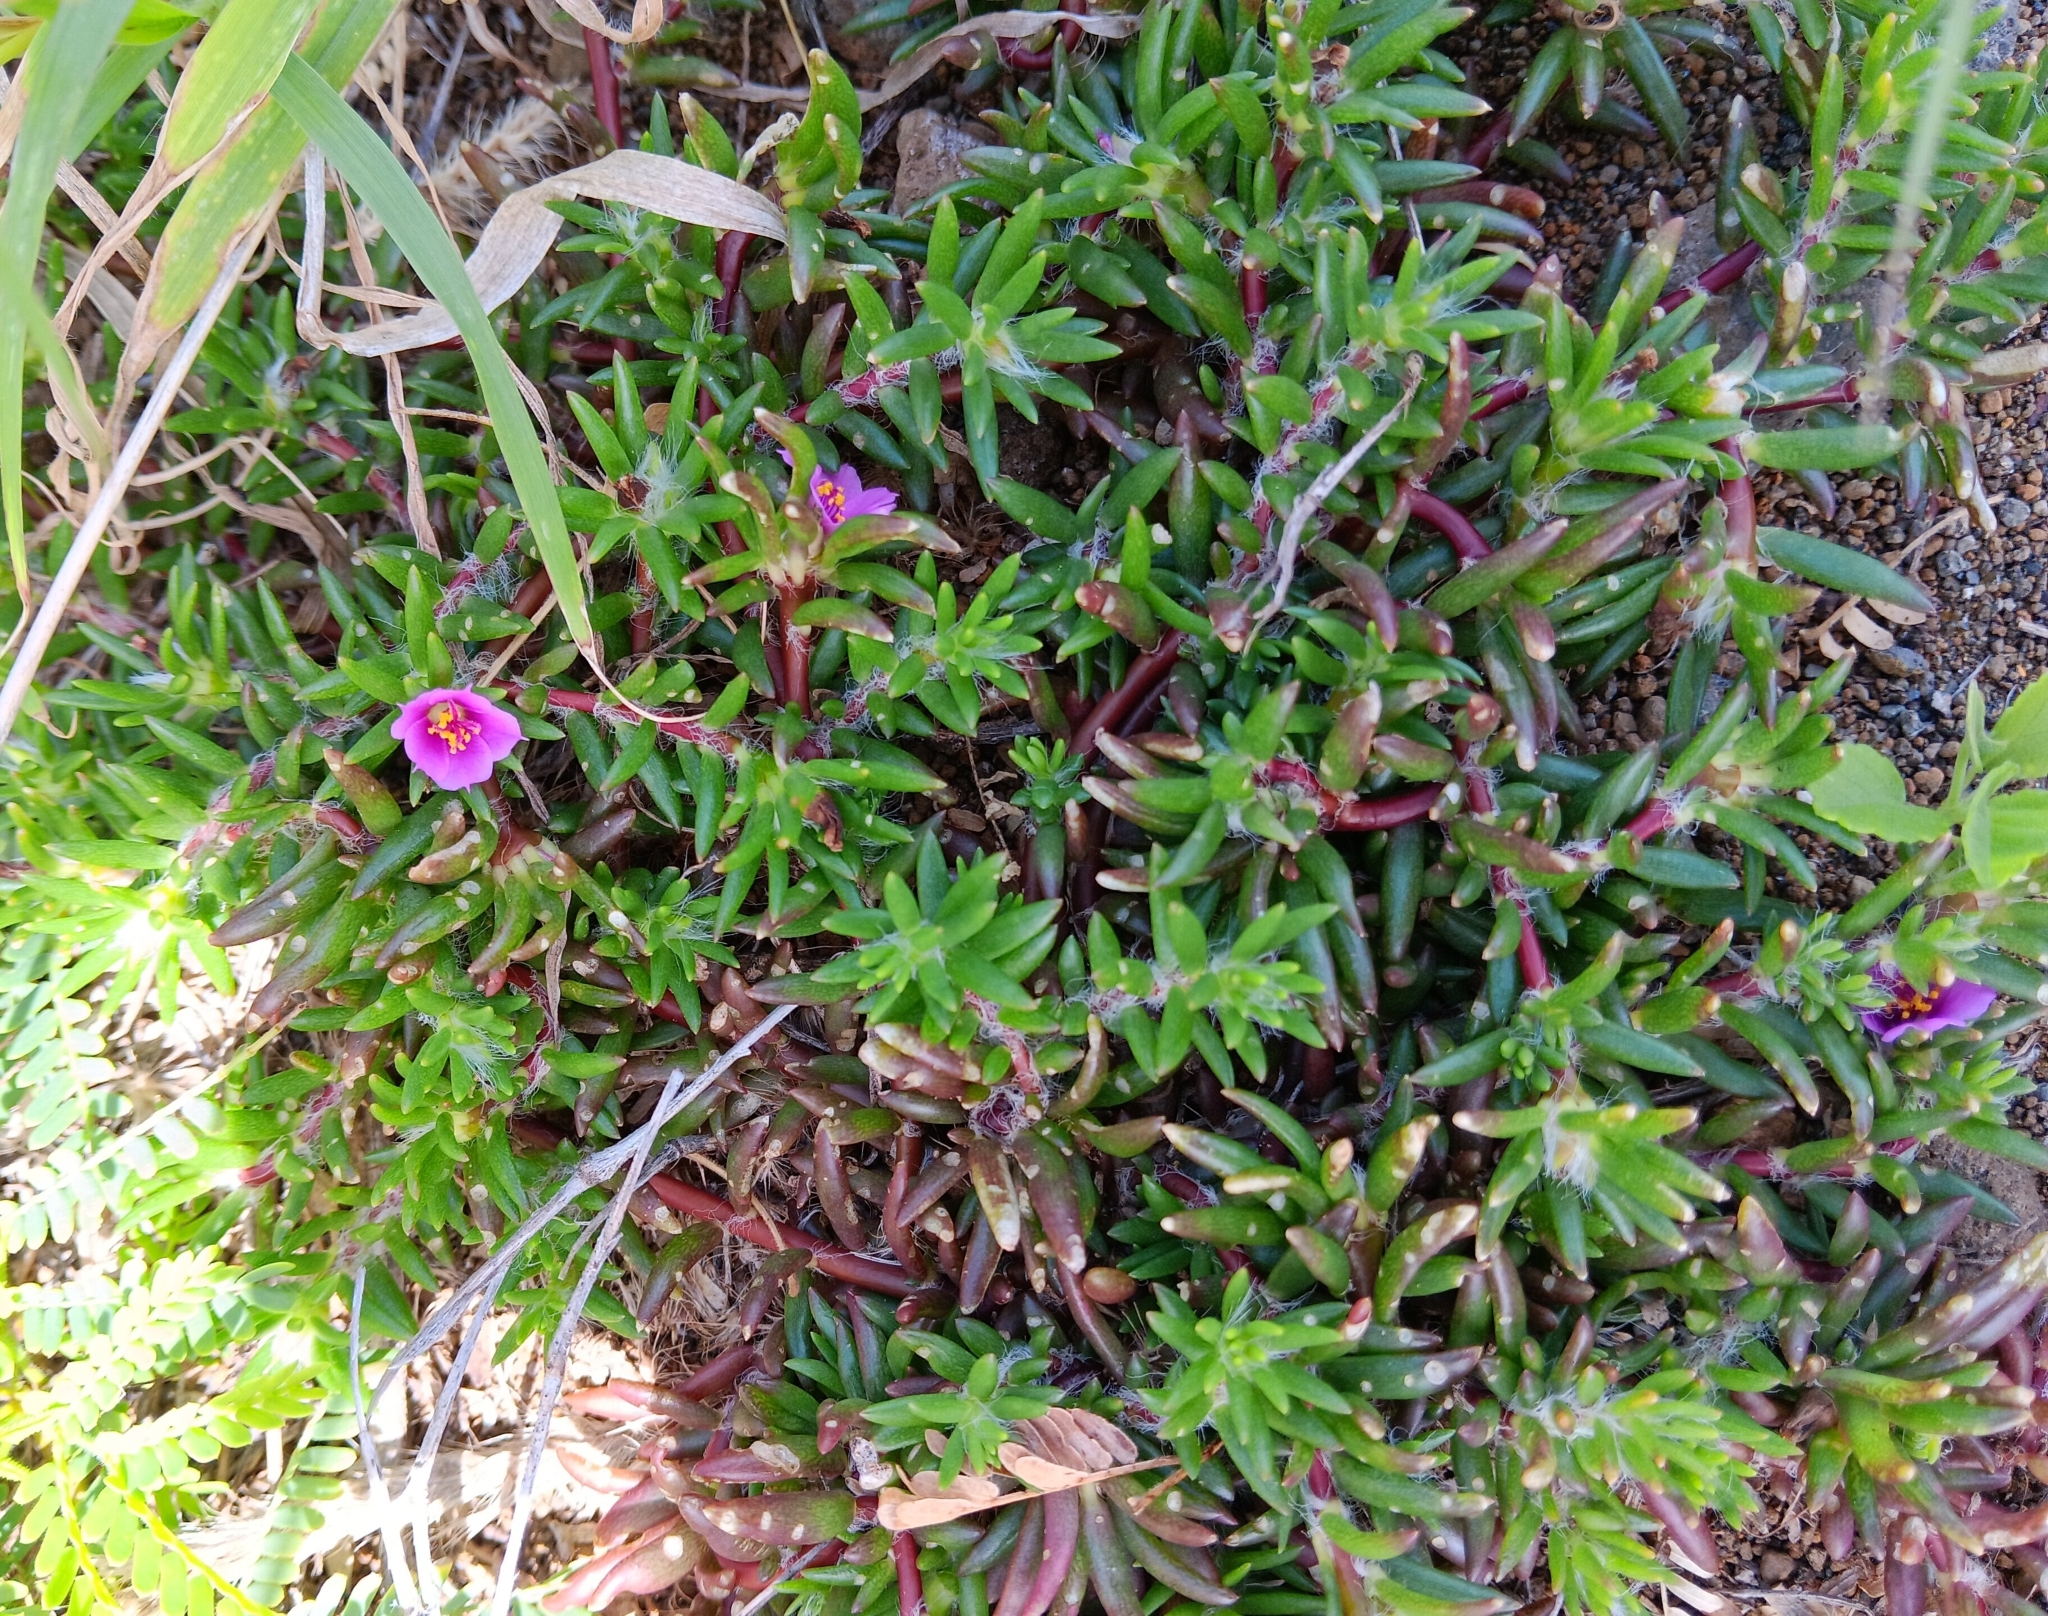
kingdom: Plantae
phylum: Tracheophyta
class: Magnoliopsida
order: Caryophyllales
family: Portulacaceae
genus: Portulaca
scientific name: Portulaca pilosa
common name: Kiss me quick
